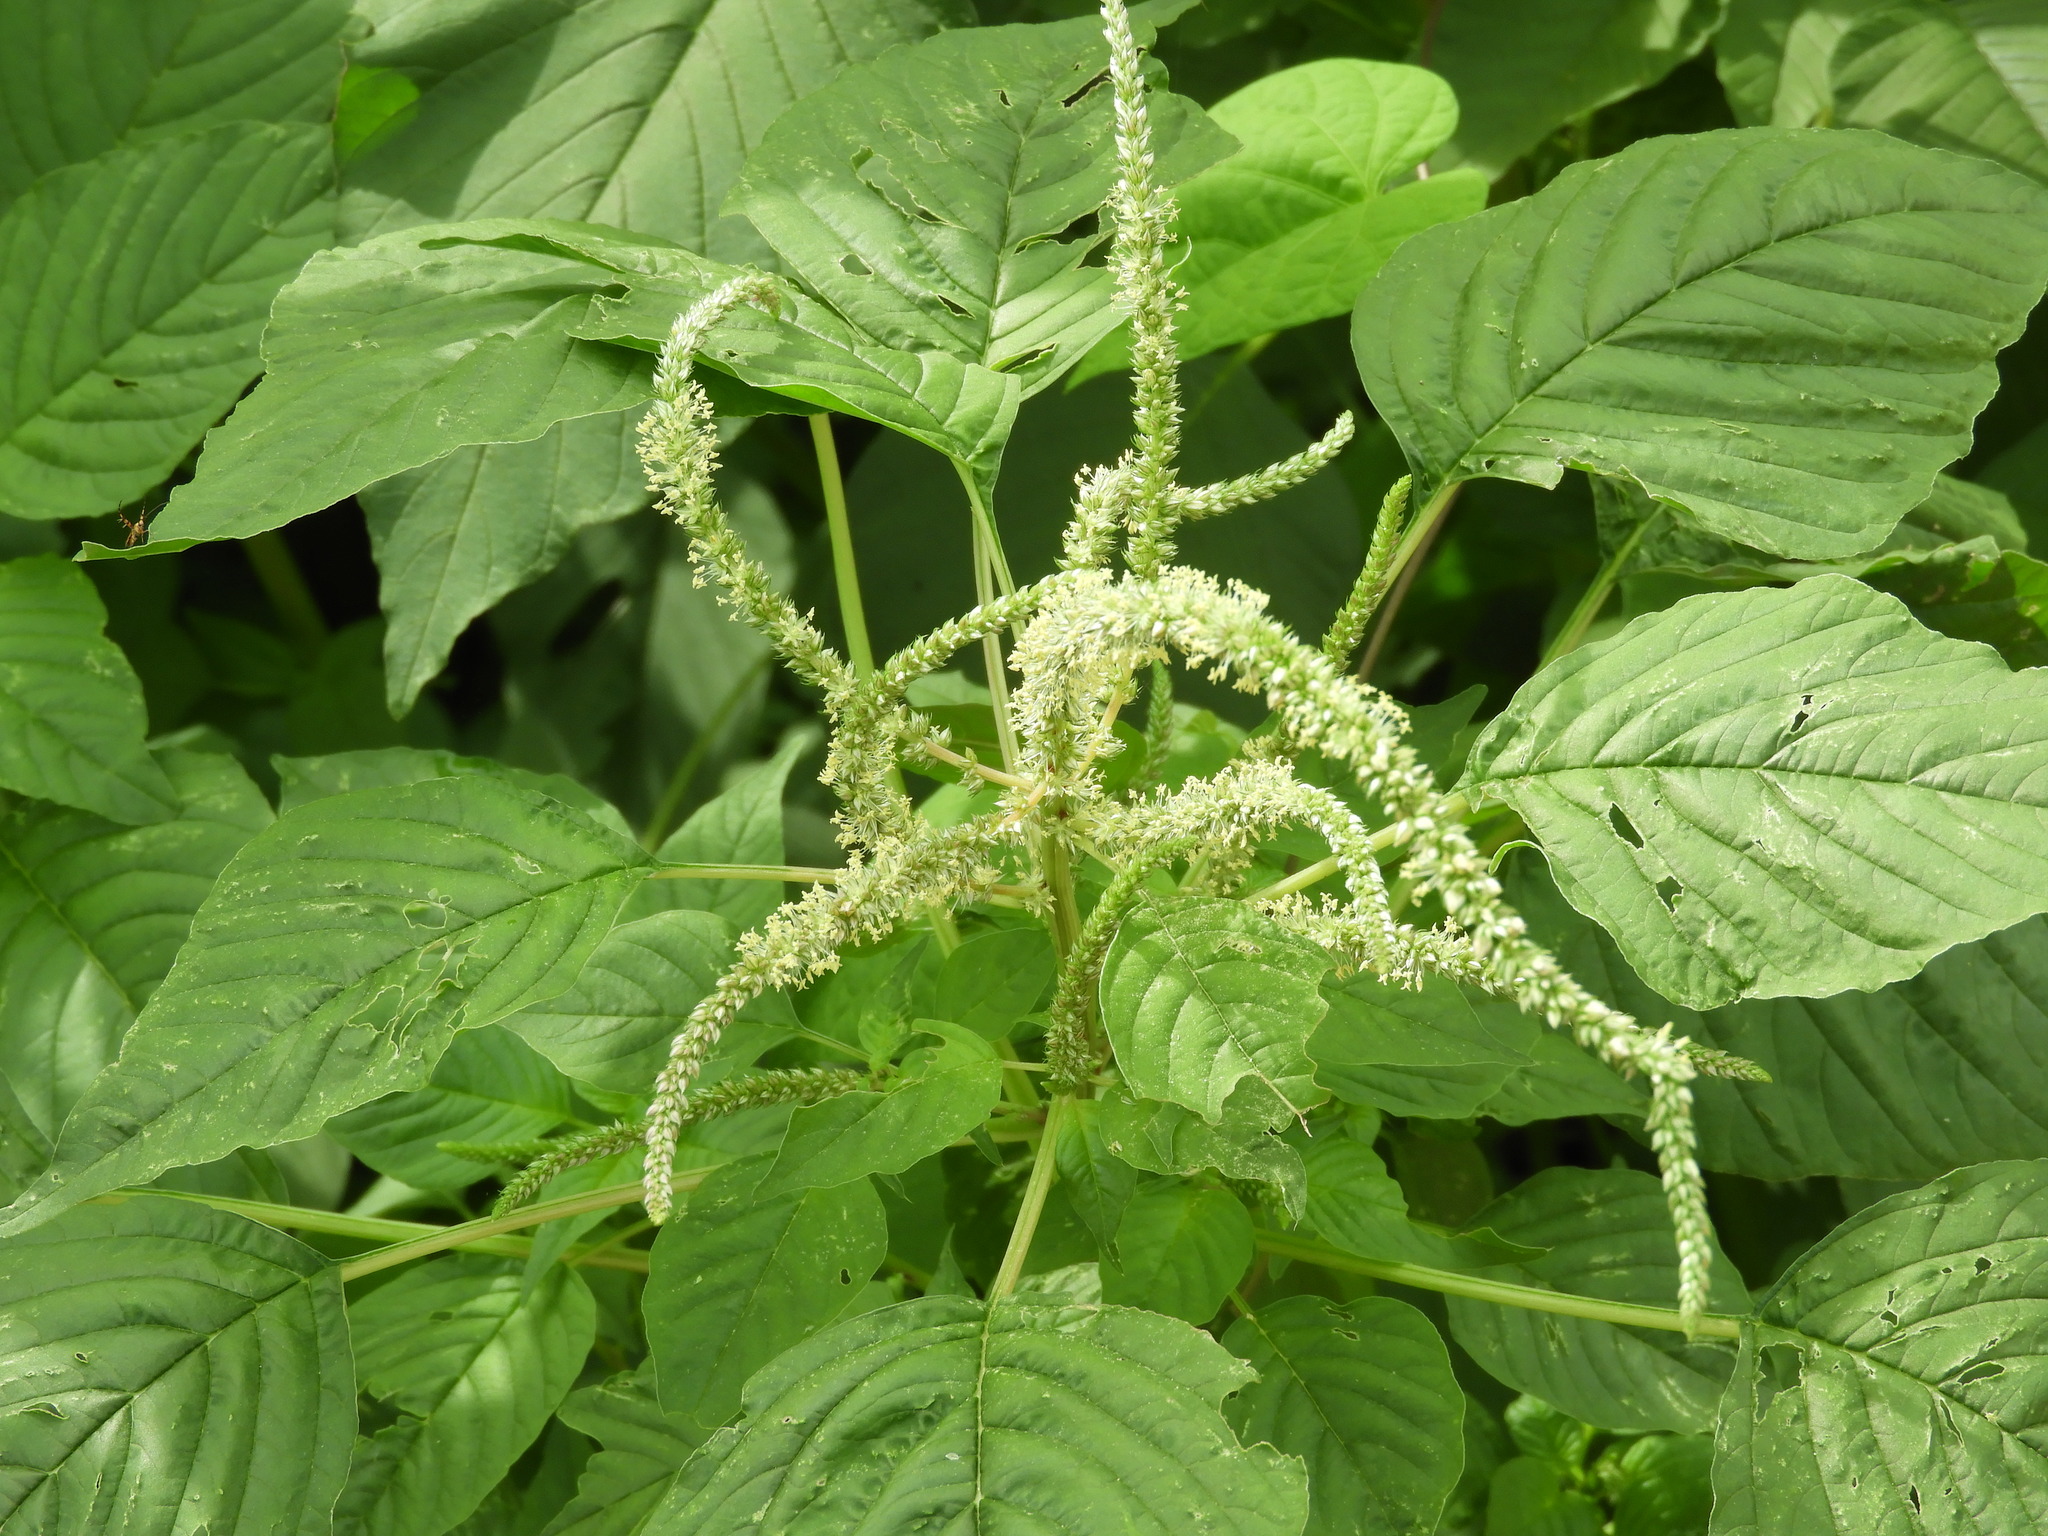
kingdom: Plantae
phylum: Tracheophyta
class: Magnoliopsida
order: Caryophyllales
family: Amaranthaceae
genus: Amaranthus
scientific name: Amaranthus palmeri
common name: Dioecious amaranth
